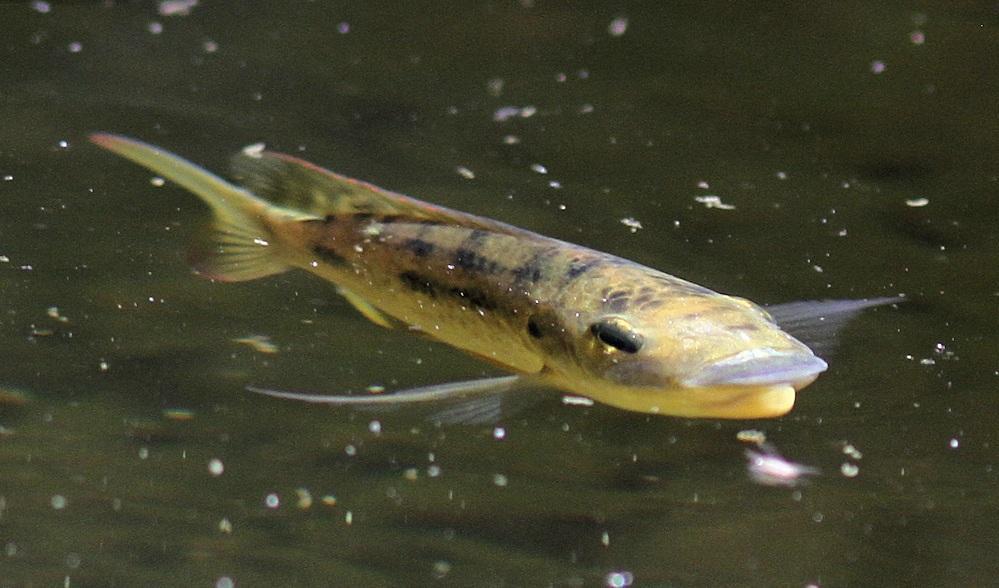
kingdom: Animalia
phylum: Chordata
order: Perciformes
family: Cichlidae
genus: Oreochromis
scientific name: Oreochromis mossambicus
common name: Mozambique tilapia
